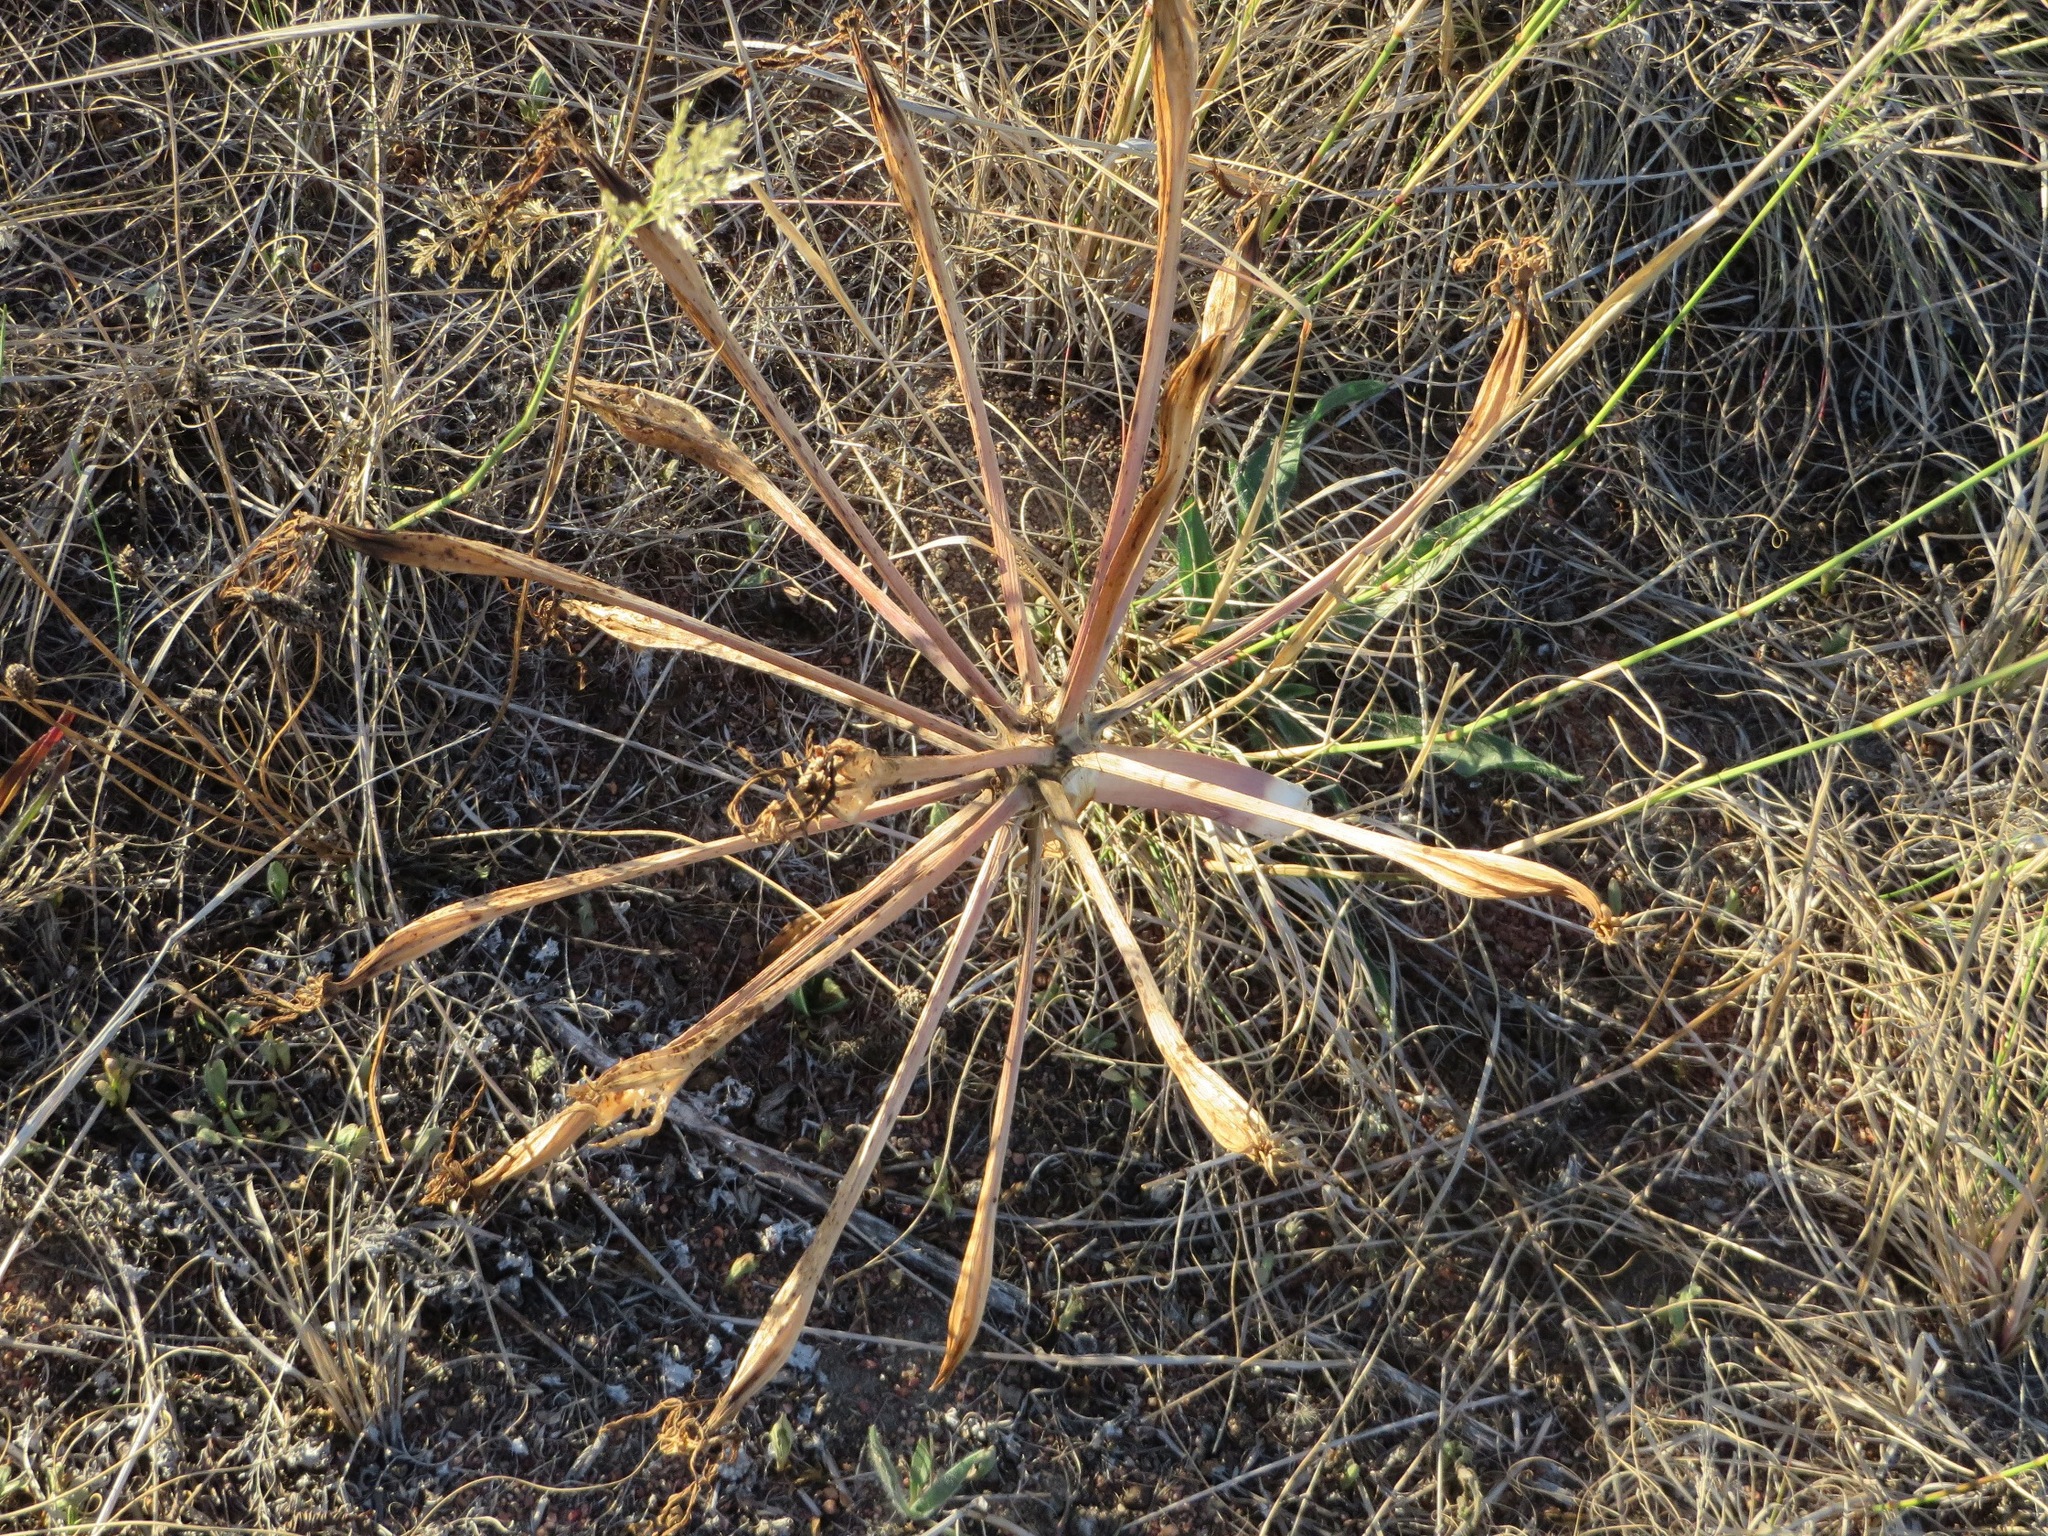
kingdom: Plantae
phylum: Tracheophyta
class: Liliopsida
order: Asparagales
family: Amaryllidaceae
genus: Ammocharis
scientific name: Ammocharis longifolia
